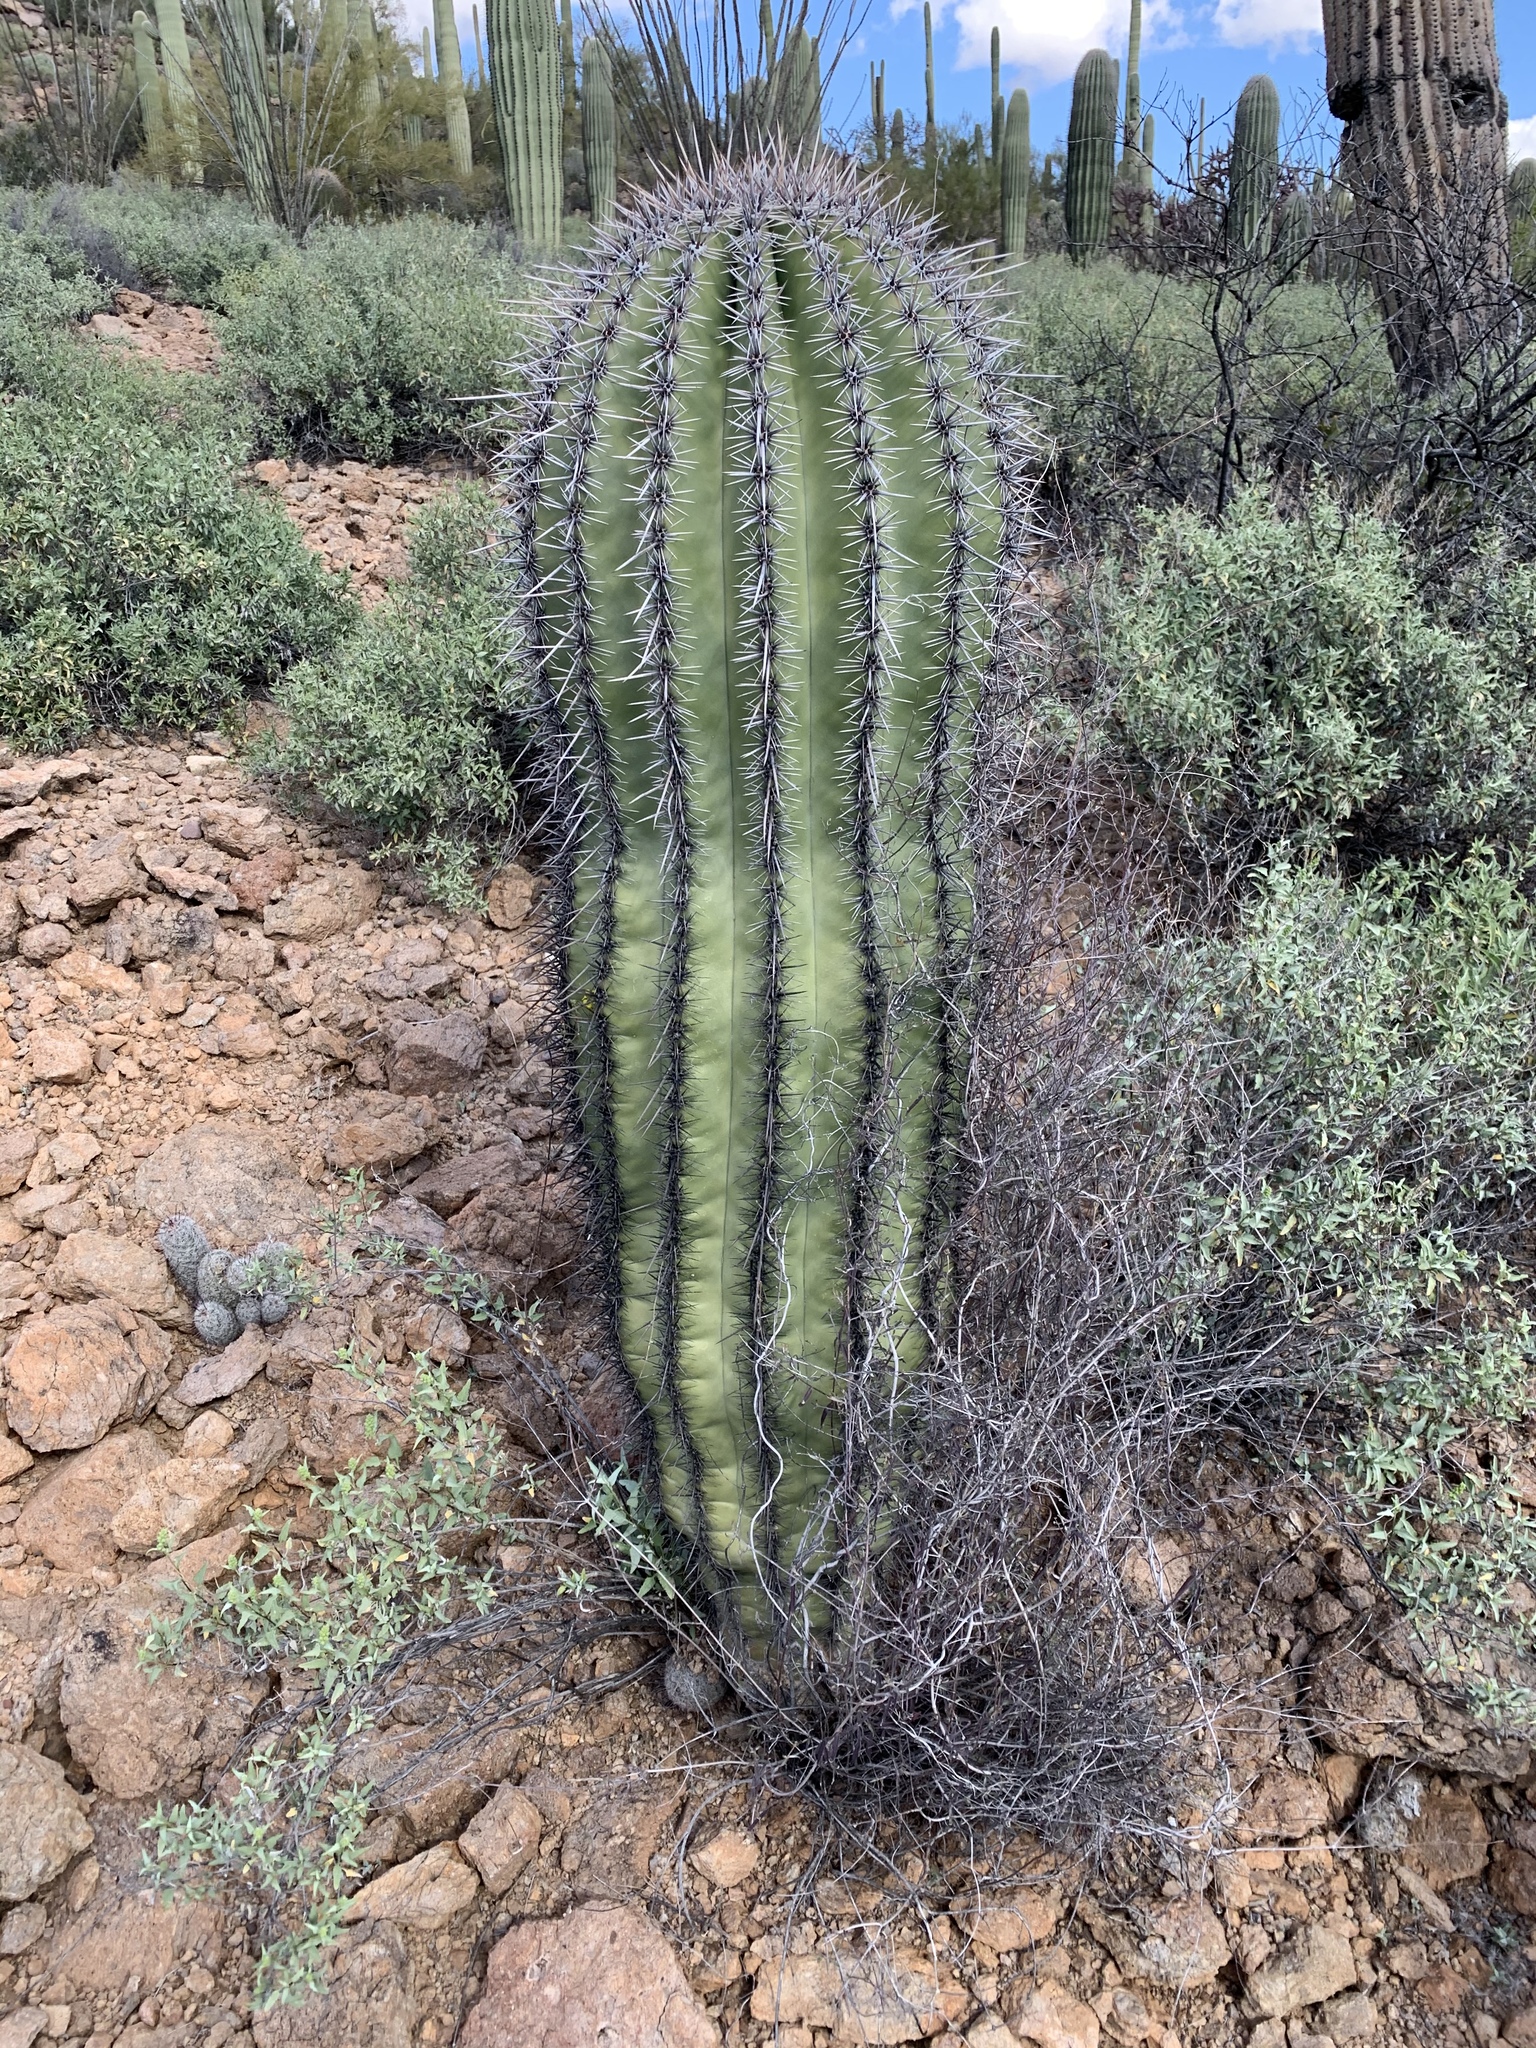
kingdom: Plantae
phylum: Tracheophyta
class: Magnoliopsida
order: Caryophyllales
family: Cactaceae
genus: Carnegiea
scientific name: Carnegiea gigantea
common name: Saguaro
